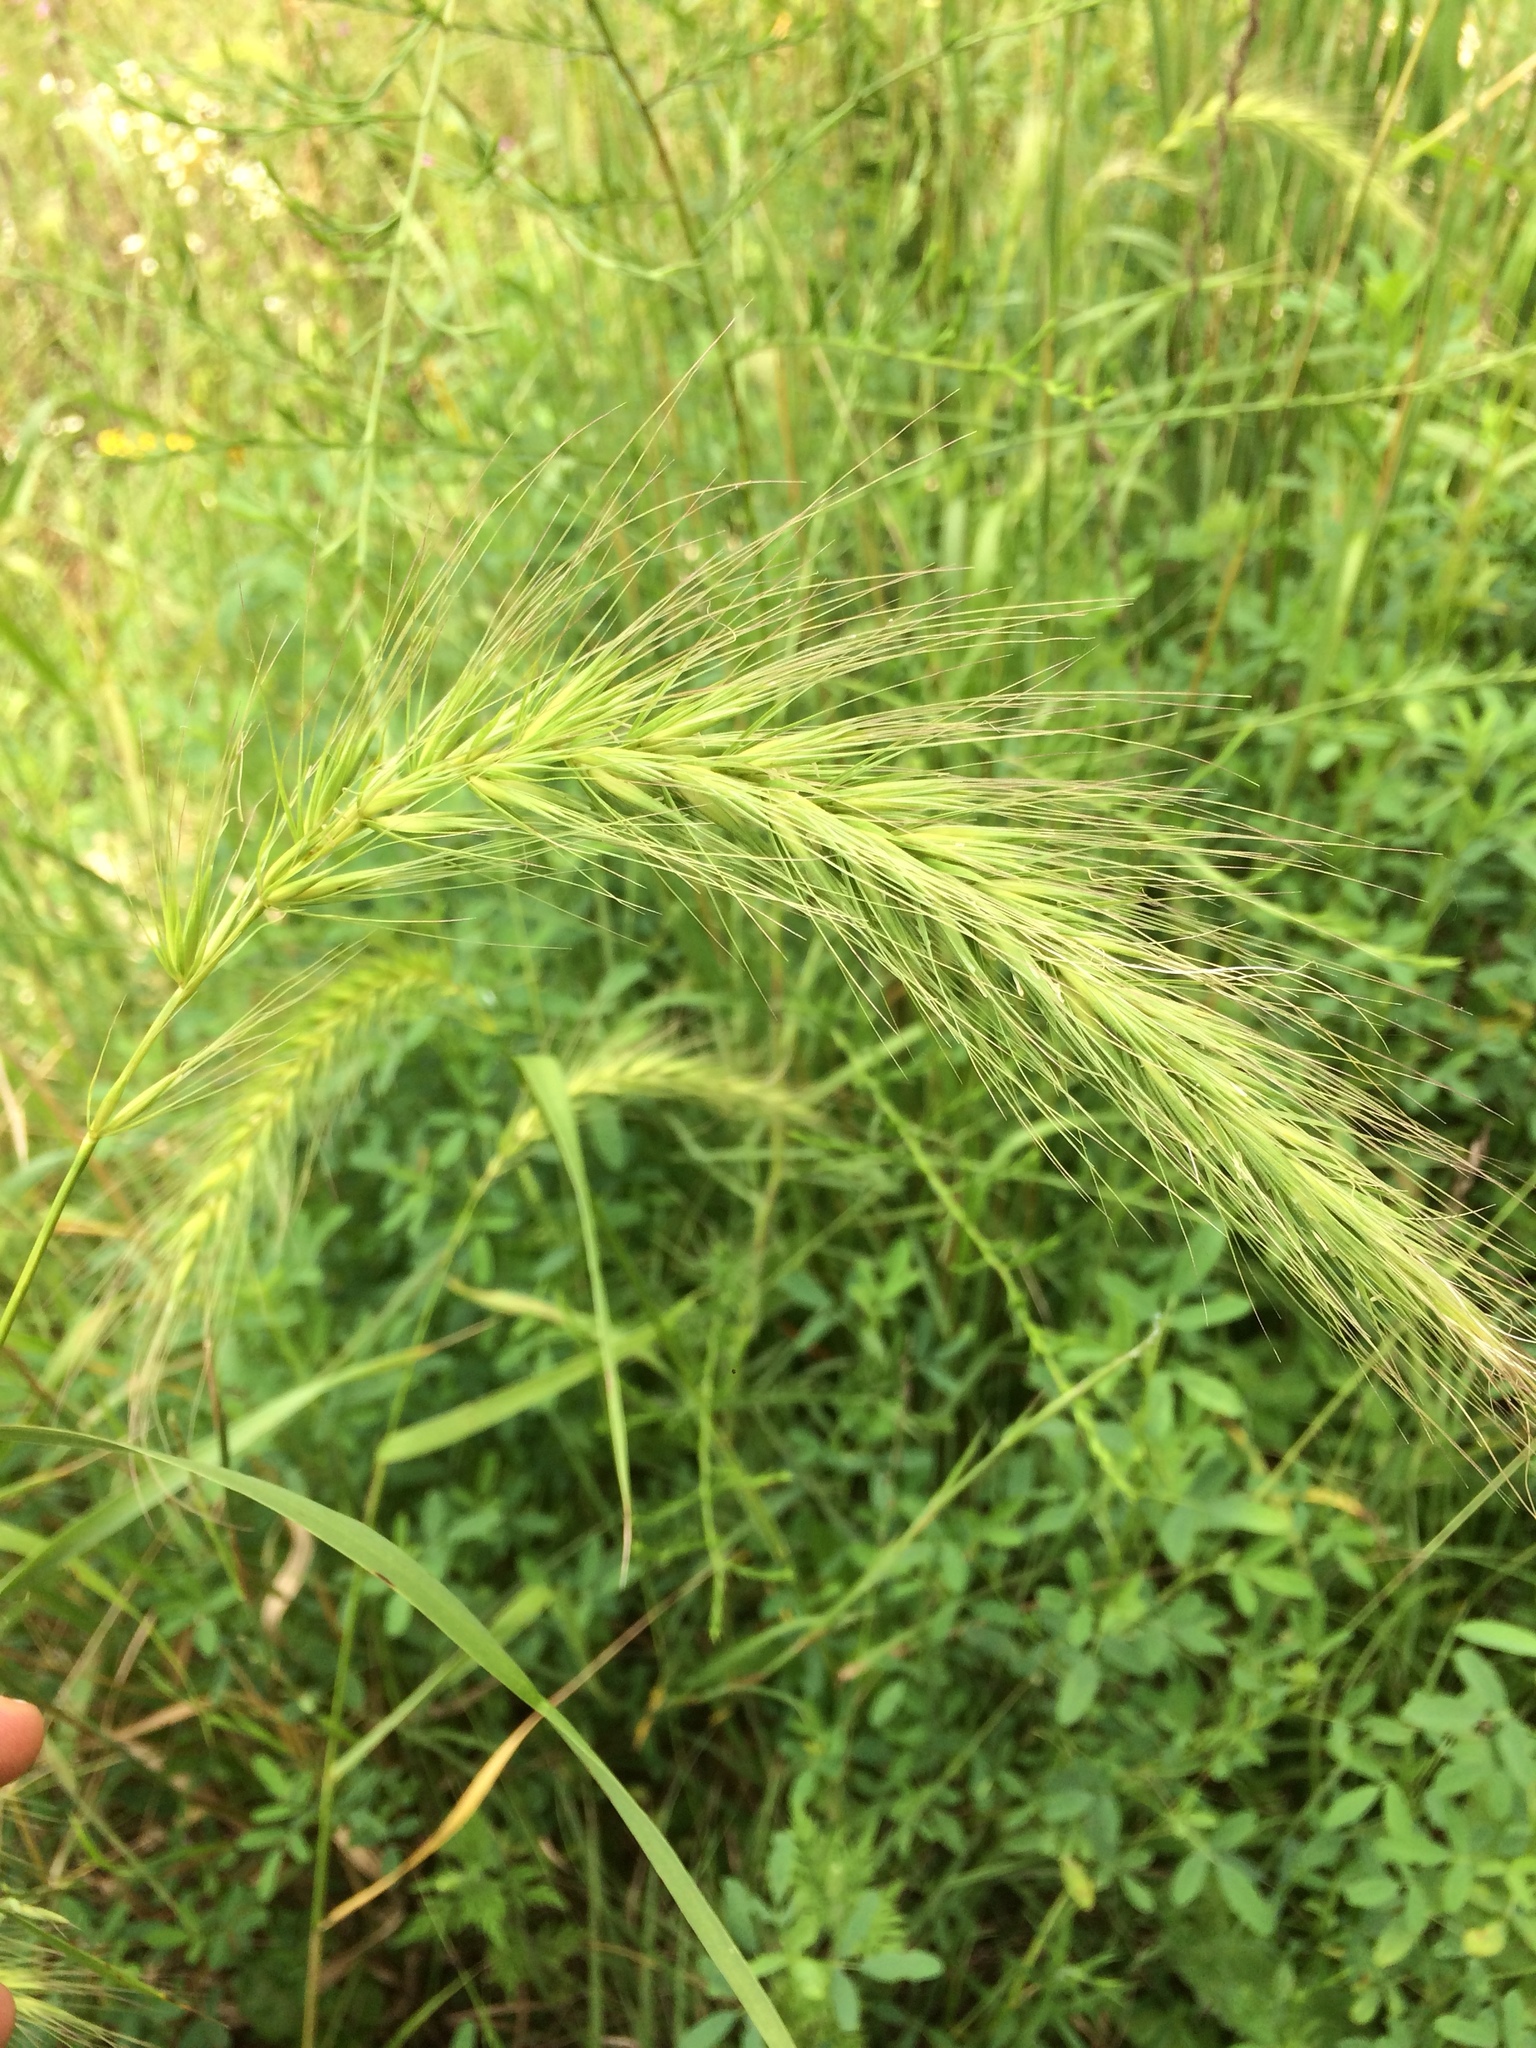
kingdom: Plantae
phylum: Tracheophyta
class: Liliopsida
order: Poales
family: Poaceae
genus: Elymus
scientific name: Elymus canadensis
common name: Canada wild rye
